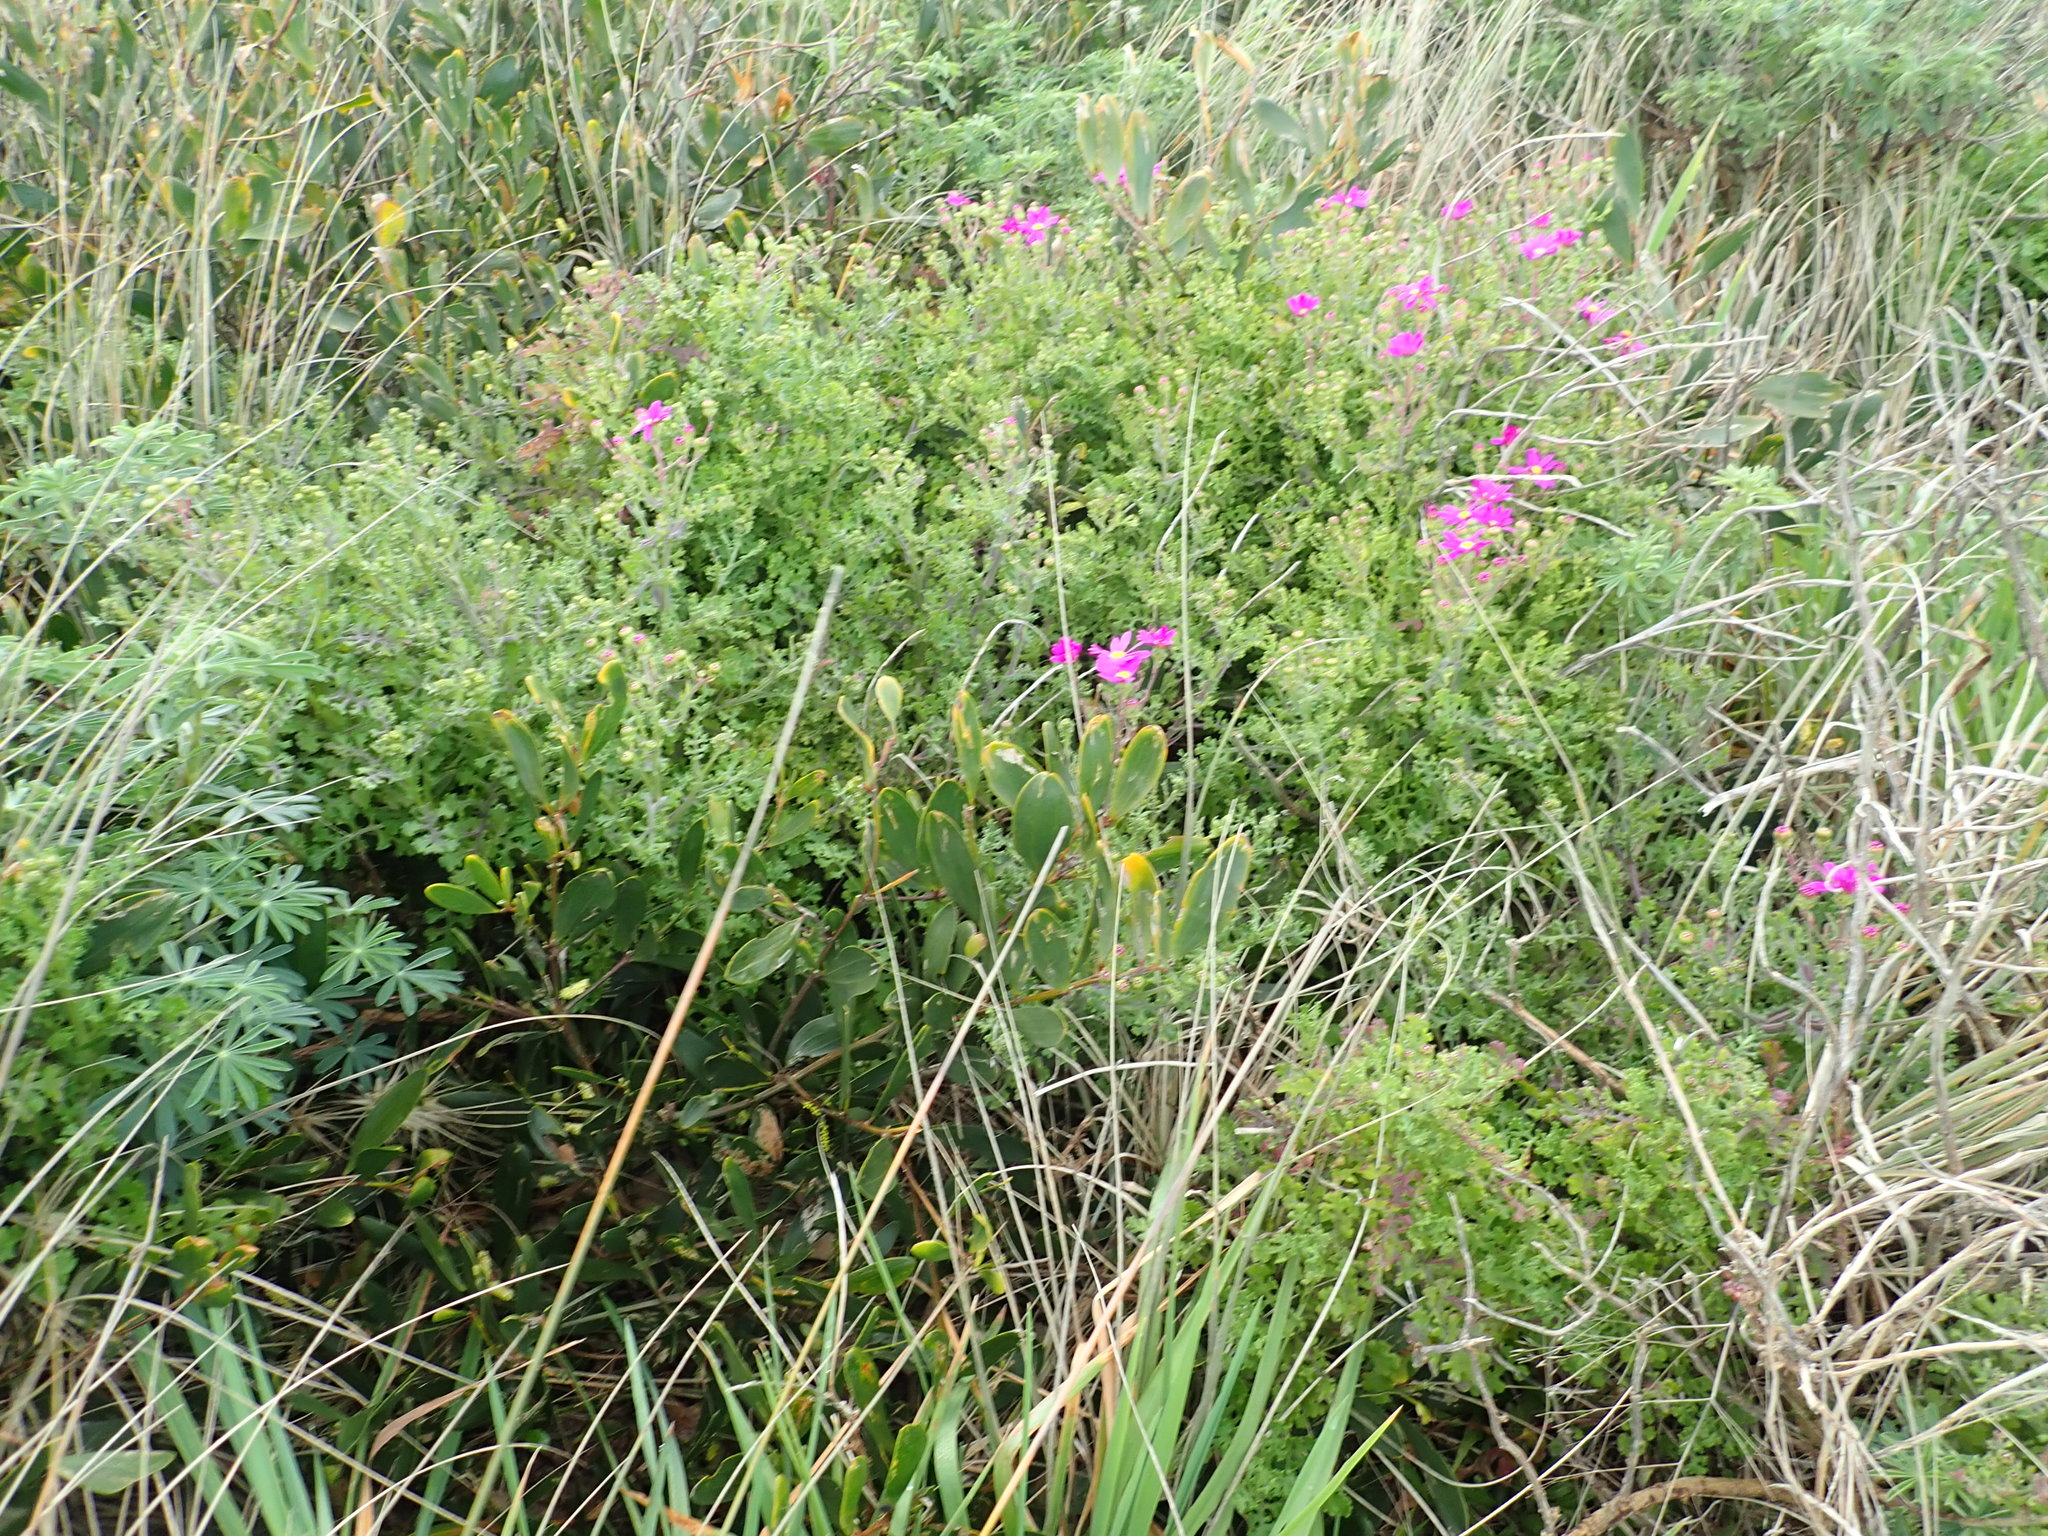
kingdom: Plantae
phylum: Tracheophyta
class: Magnoliopsida
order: Asterales
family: Asteraceae
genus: Senecio
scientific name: Senecio elegans
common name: Purple groundsel
